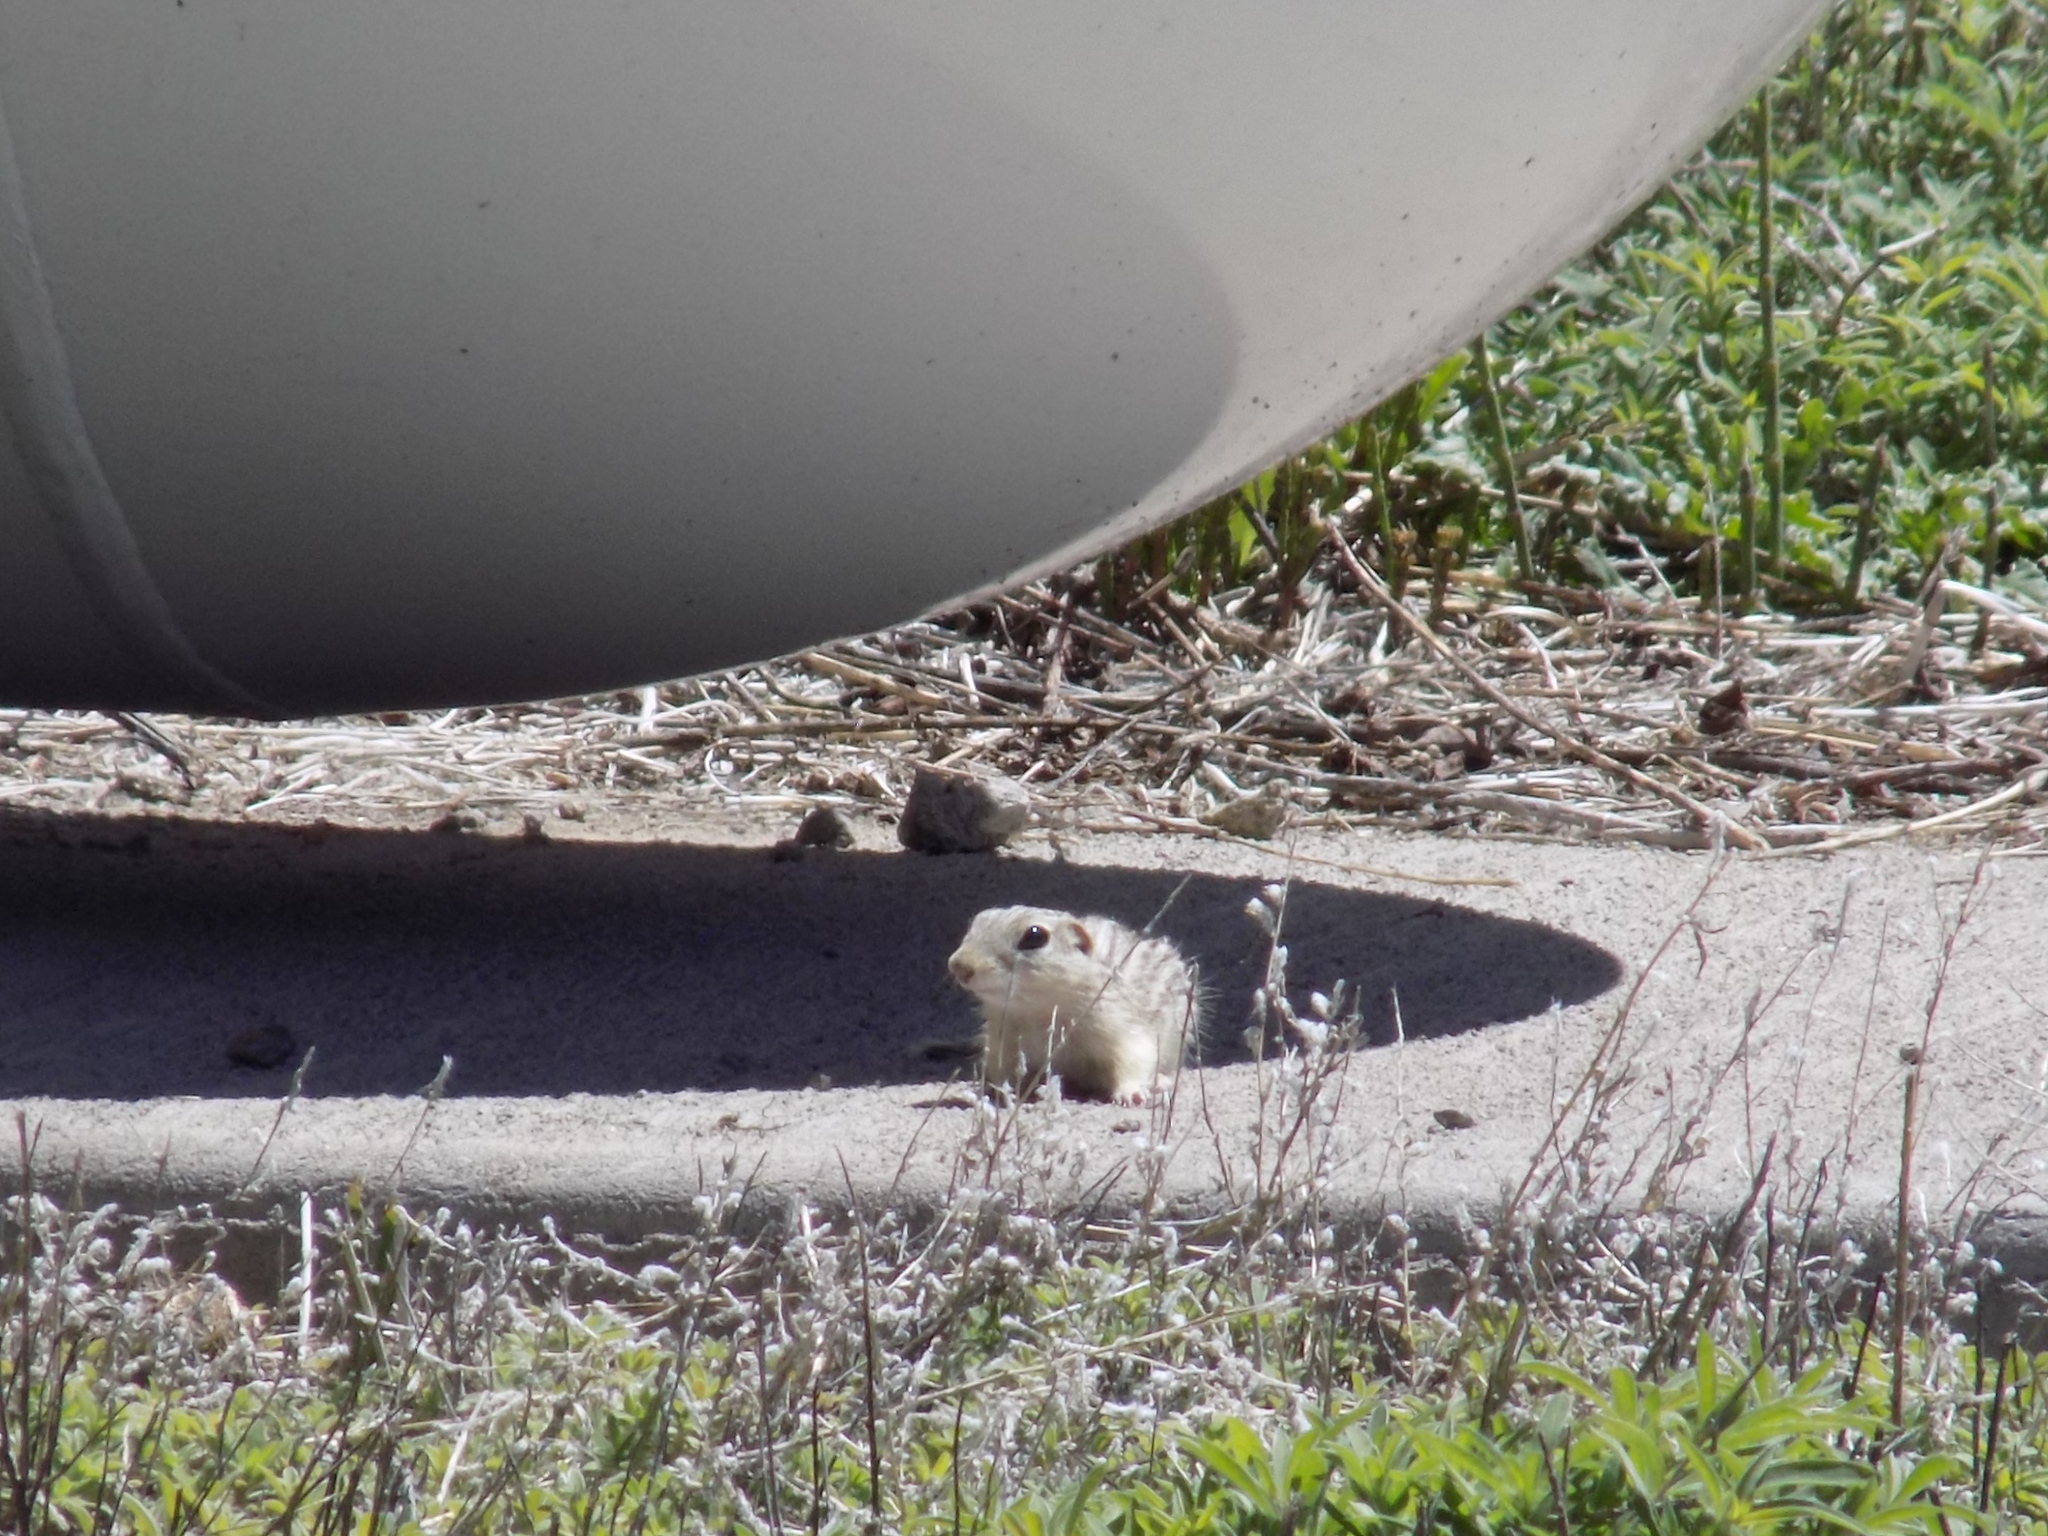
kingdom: Animalia
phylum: Chordata
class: Mammalia
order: Rodentia
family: Sciuridae
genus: Ictidomys
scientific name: Ictidomys tridecemlineatus
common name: Thirteen-lined ground squirrel
